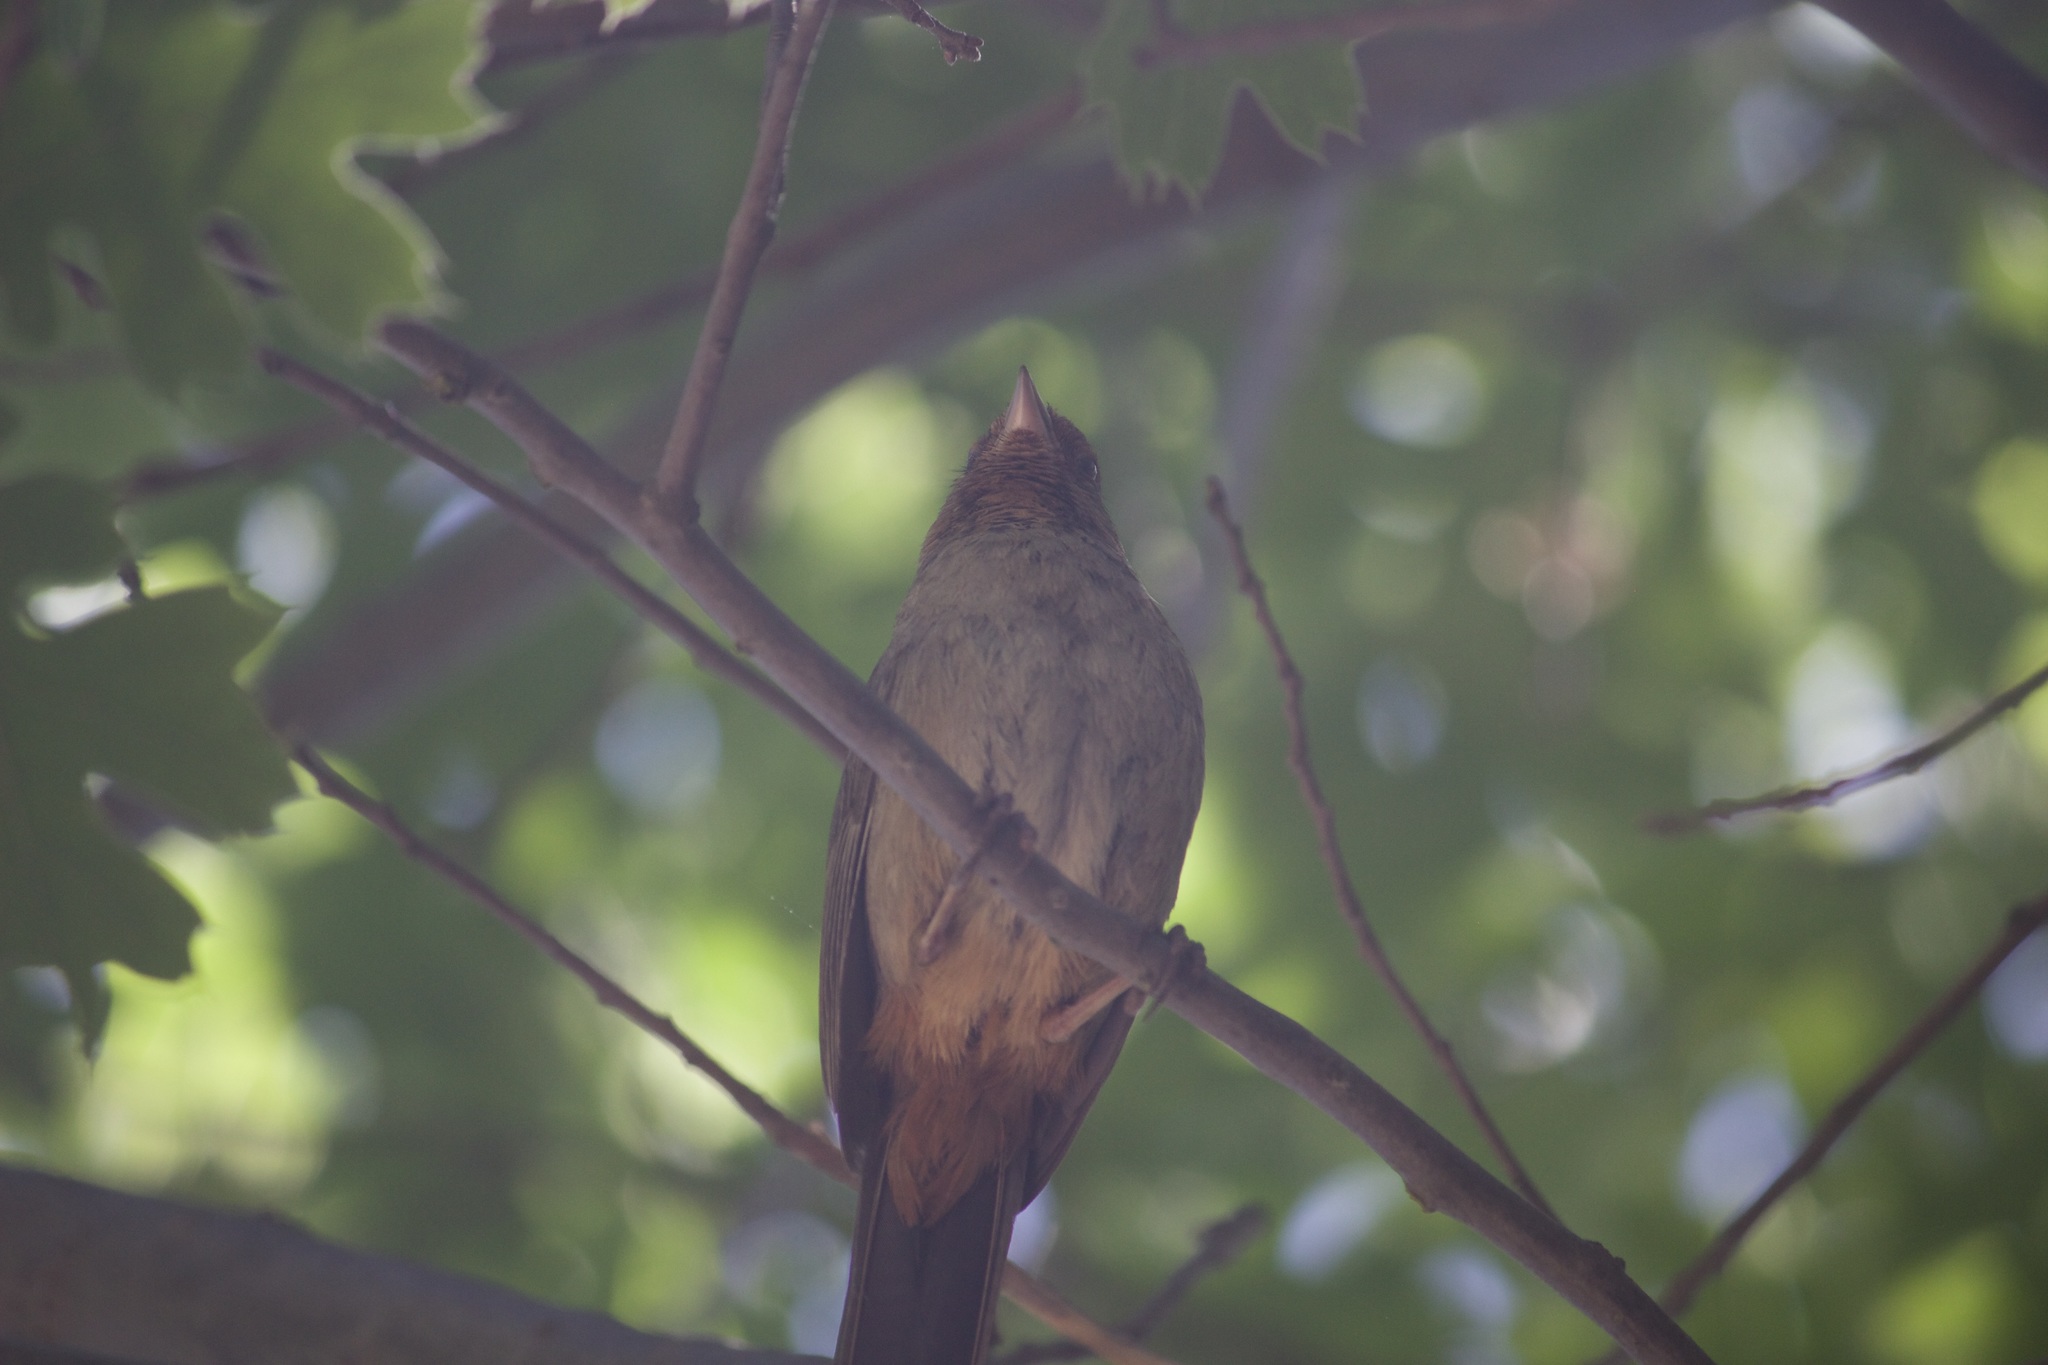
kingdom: Animalia
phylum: Chordata
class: Aves
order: Passeriformes
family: Passerellidae
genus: Melozone
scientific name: Melozone crissalis
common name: California towhee
